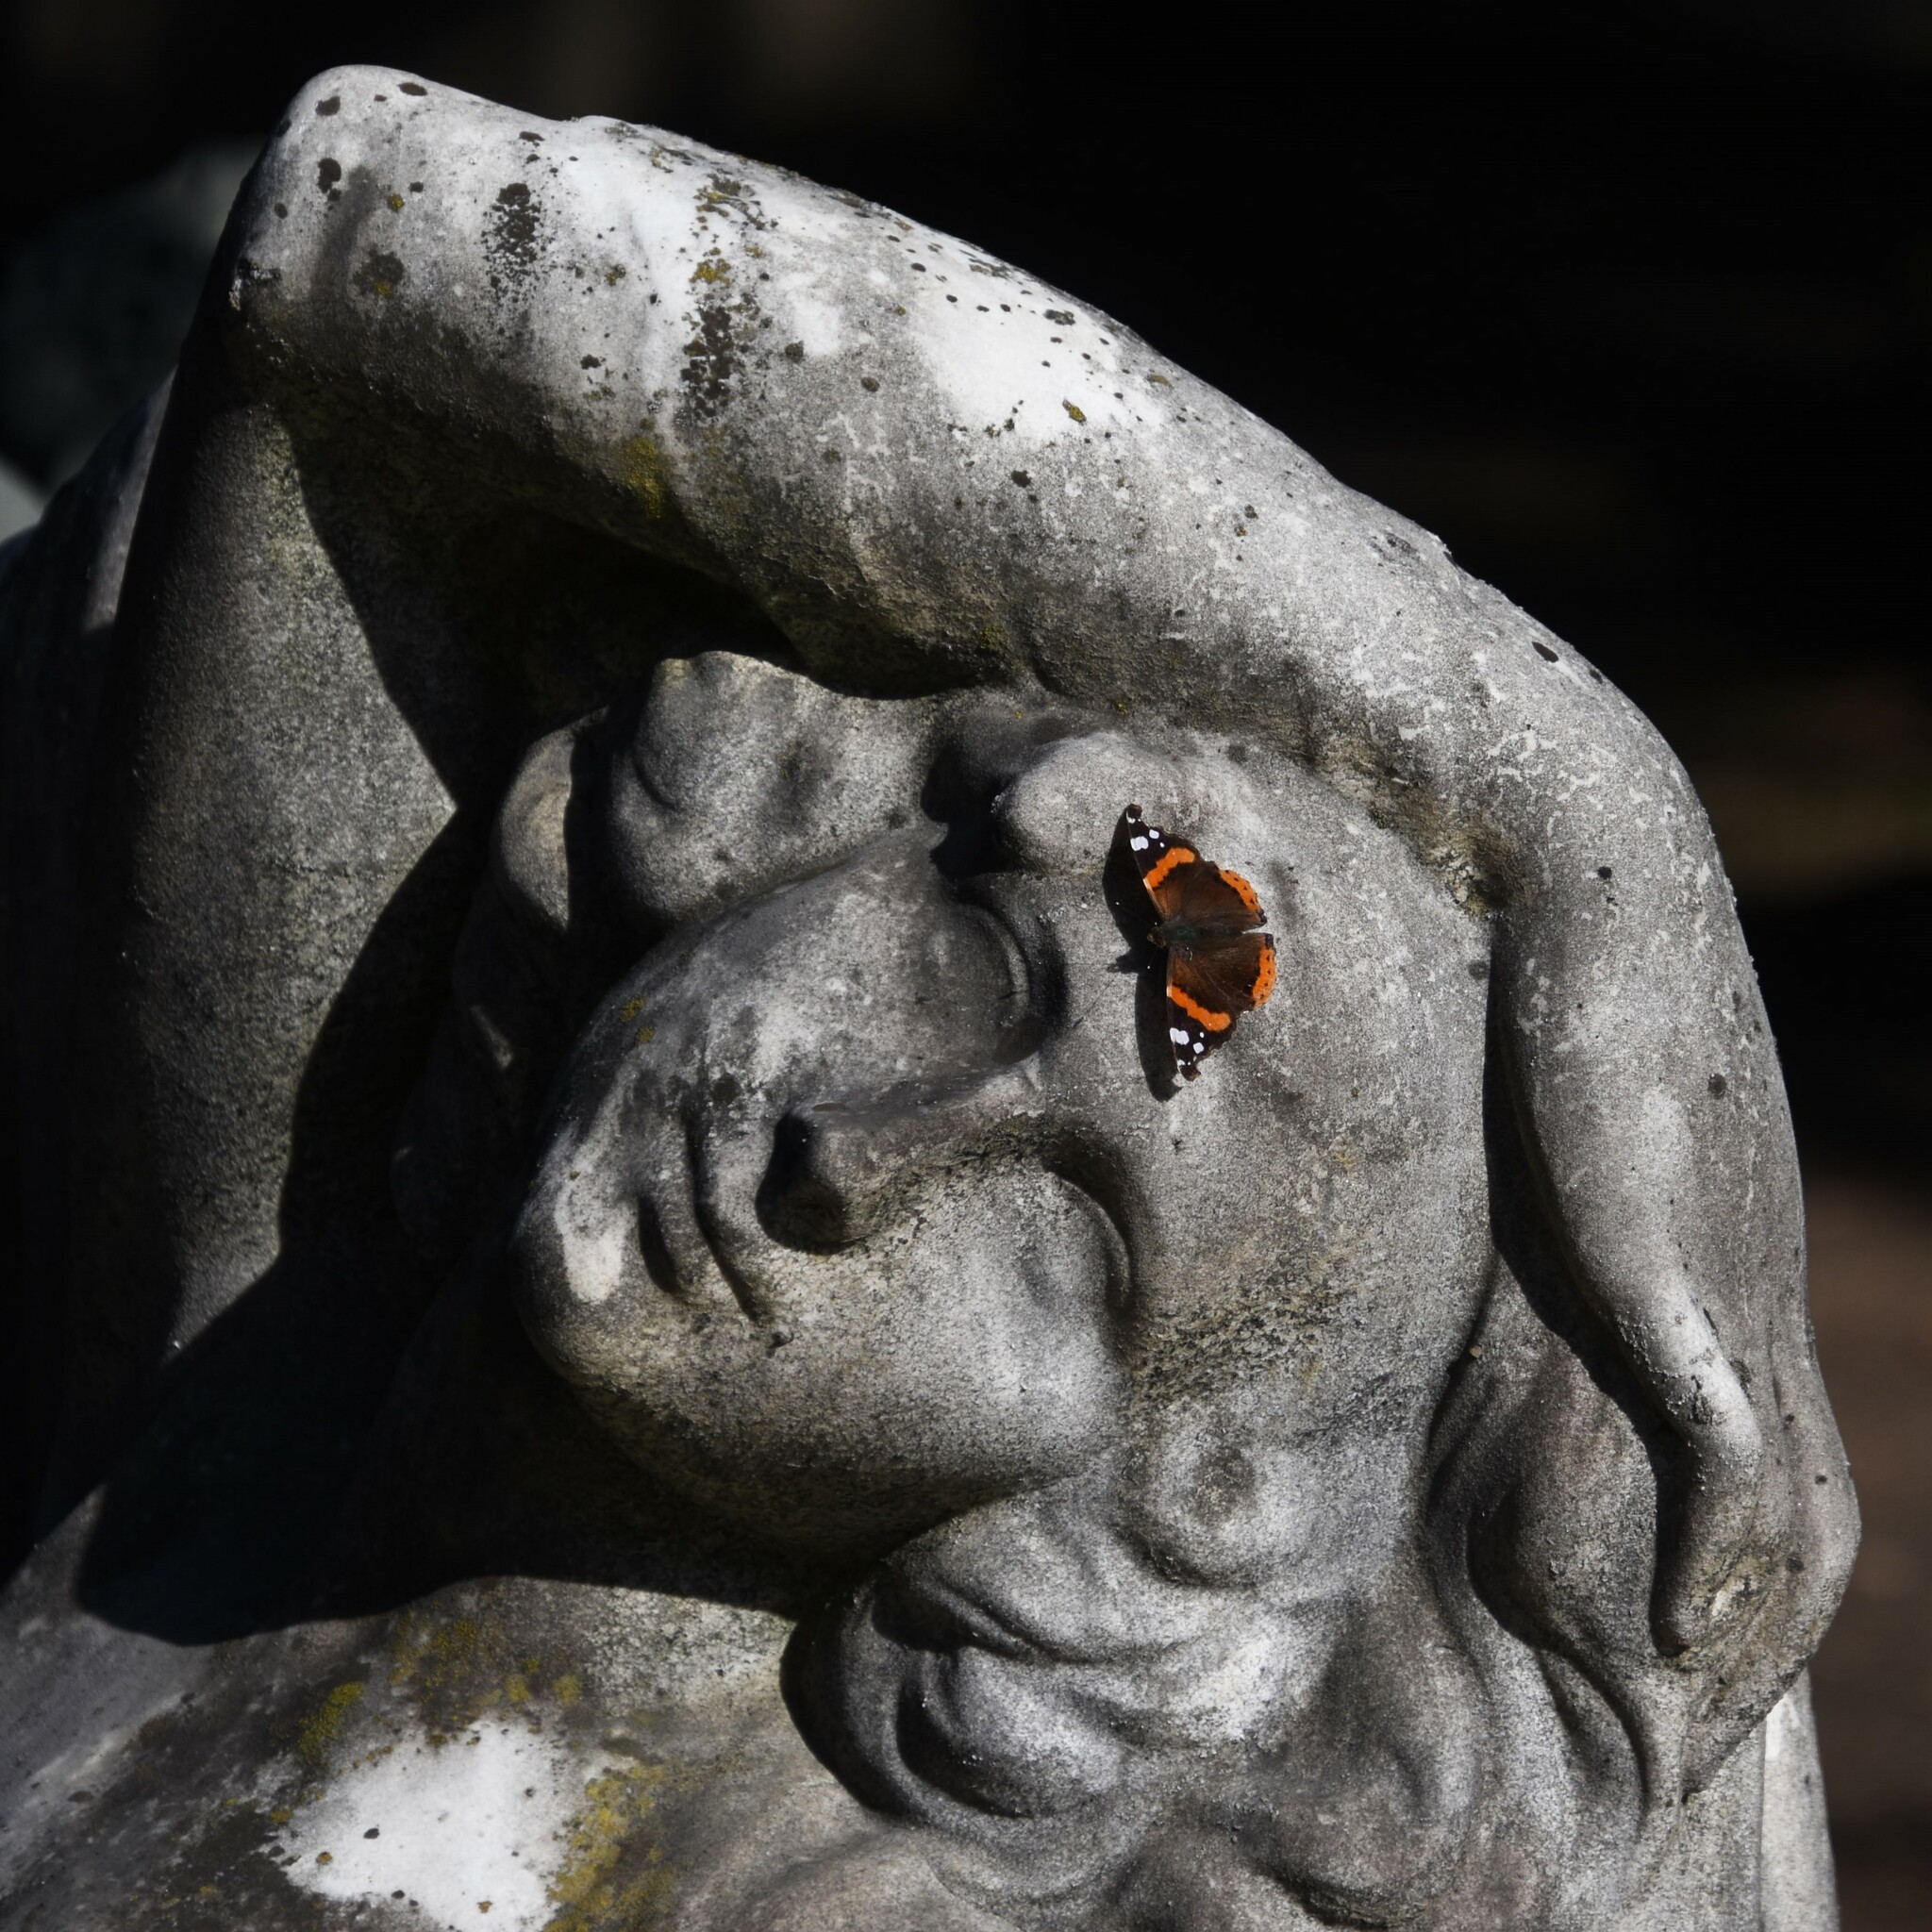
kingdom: Animalia
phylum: Arthropoda
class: Insecta
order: Lepidoptera
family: Nymphalidae
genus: Vanessa
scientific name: Vanessa atalanta
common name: Red admiral
